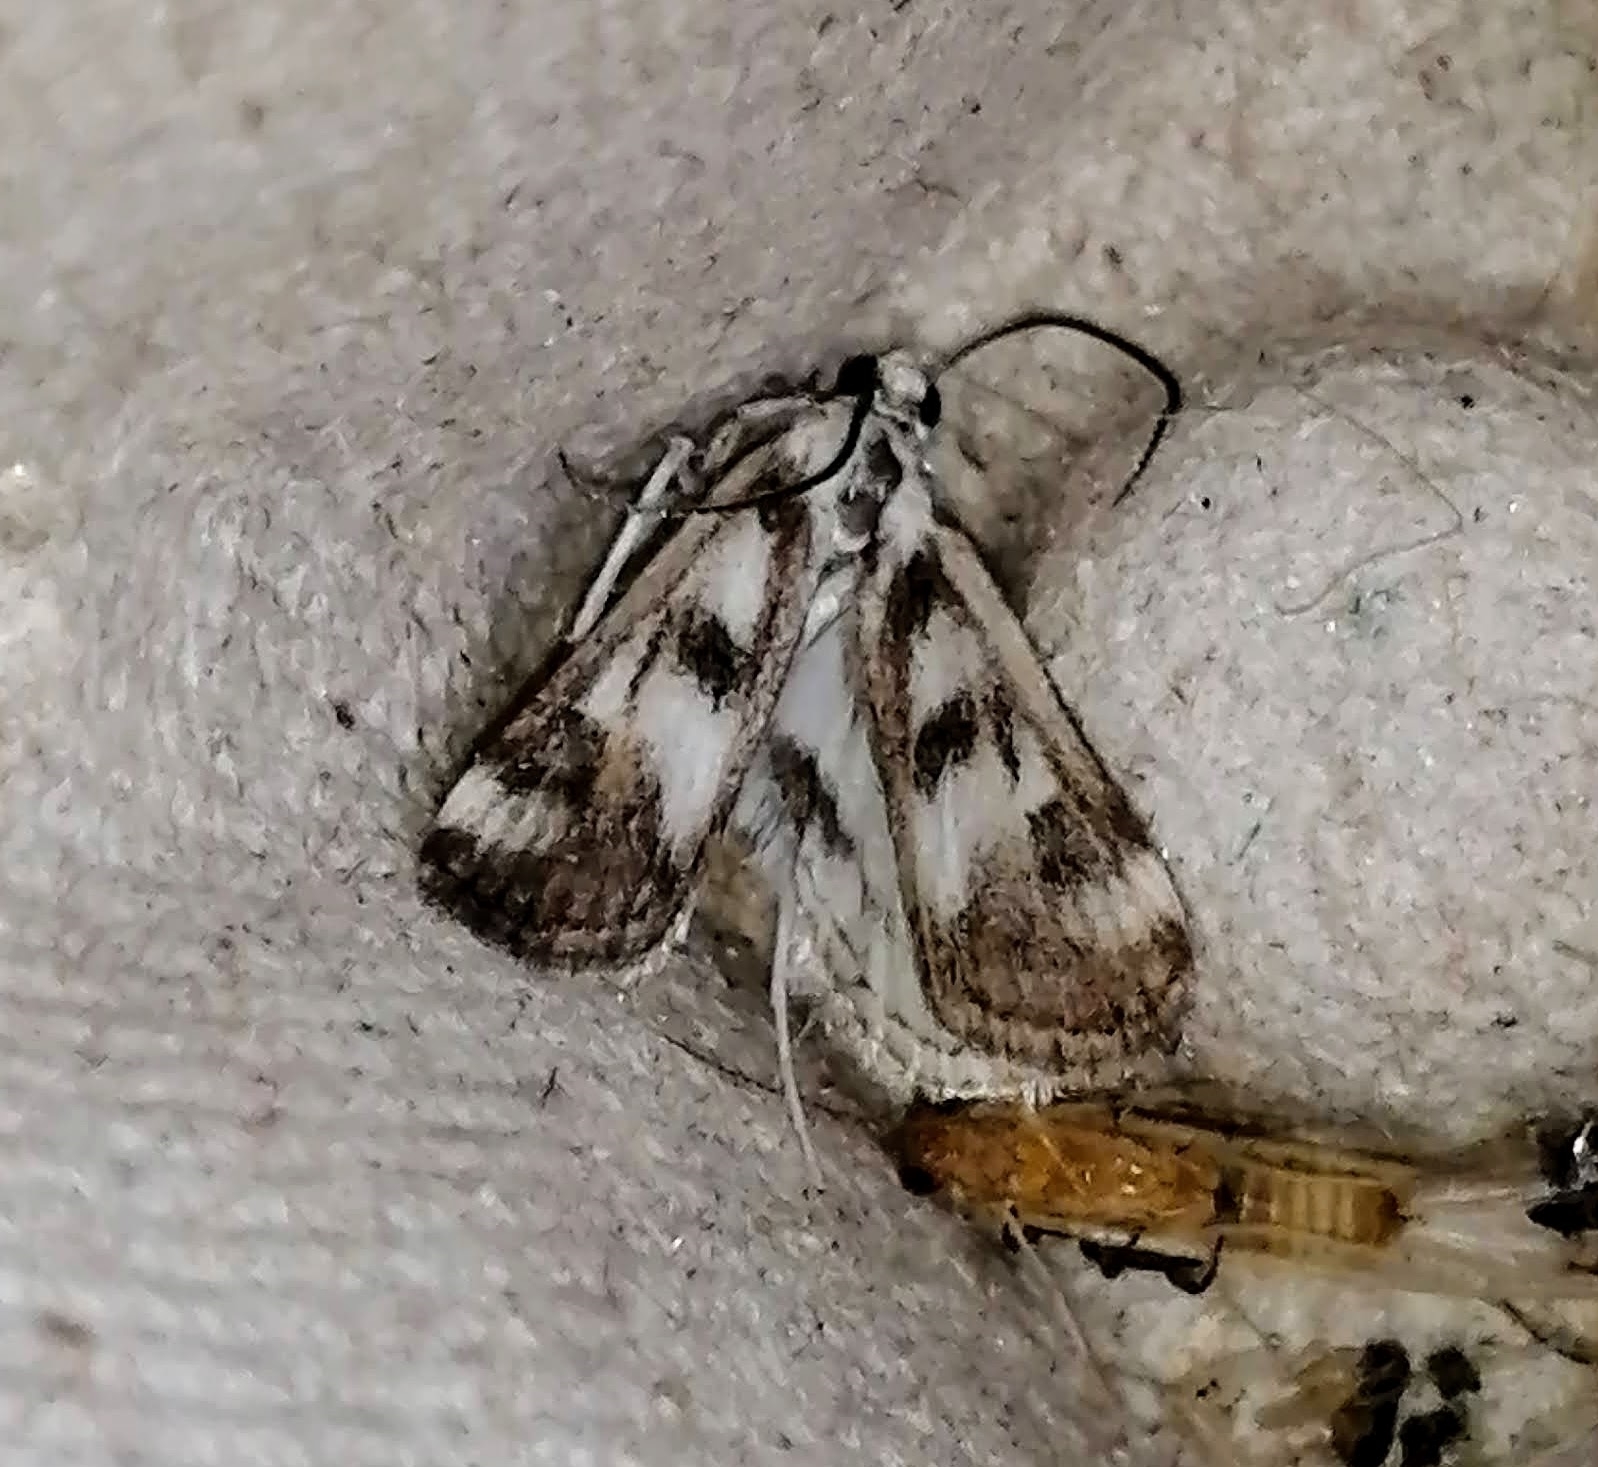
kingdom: Animalia
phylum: Arthropoda
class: Insecta
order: Lepidoptera
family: Crambidae
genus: Parapoynx
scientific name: Parapoynx maculalis
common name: Polymorphic pondweed moth
